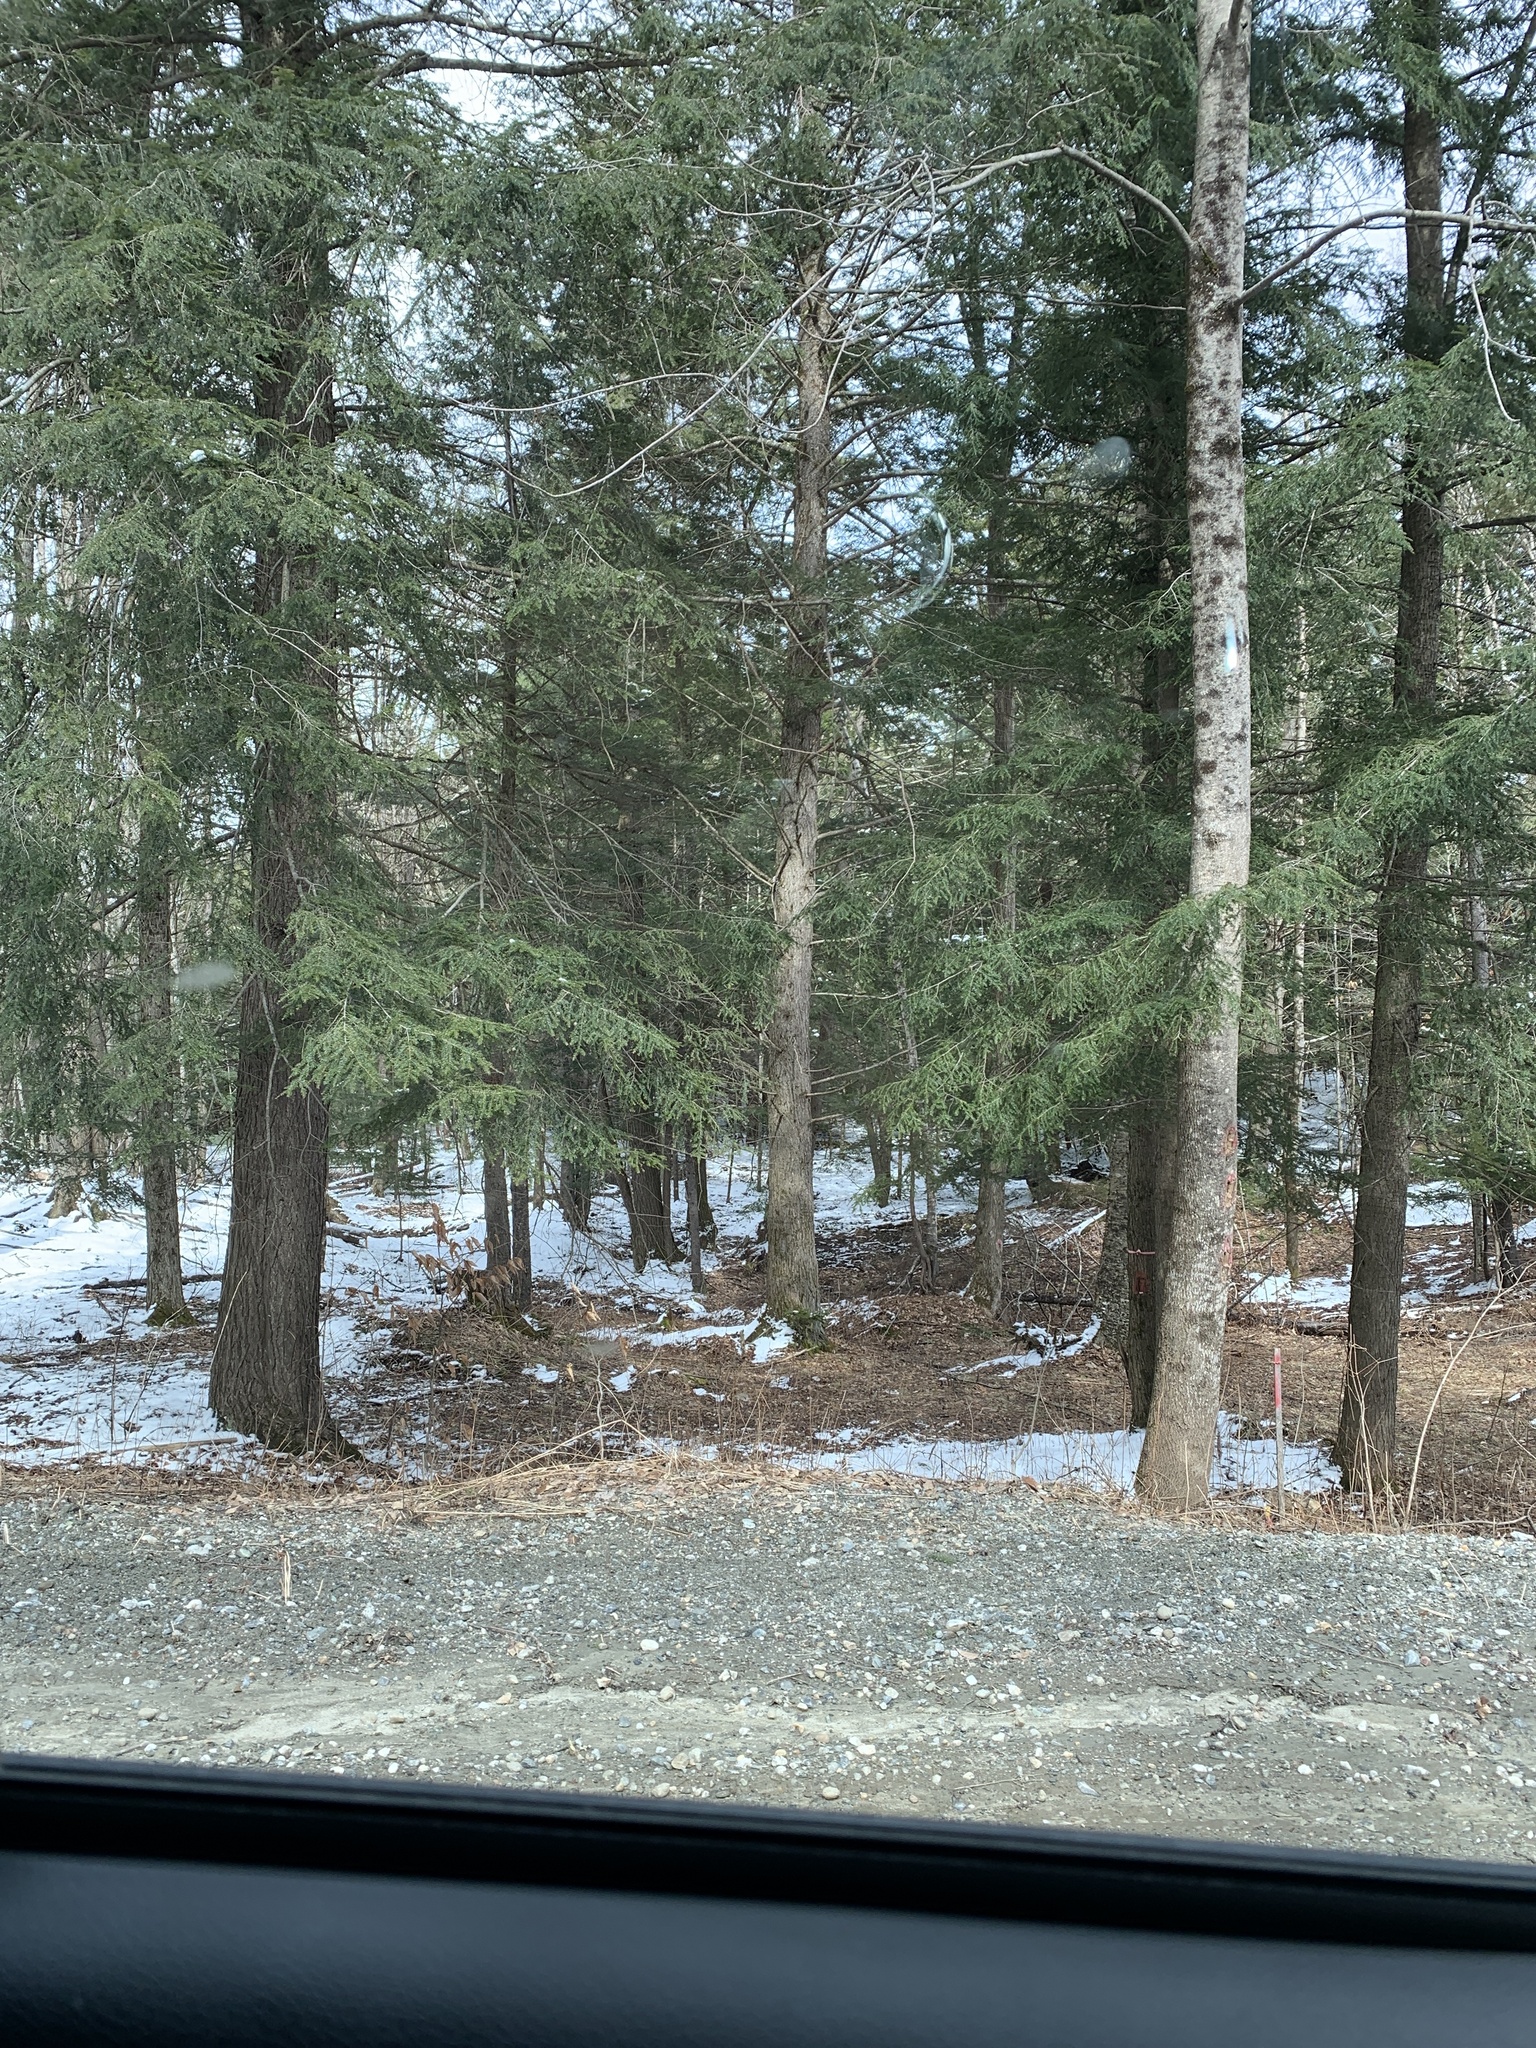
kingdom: Plantae
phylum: Tracheophyta
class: Pinopsida
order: Pinales
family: Pinaceae
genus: Tsuga
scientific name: Tsuga canadensis
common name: Eastern hemlock
